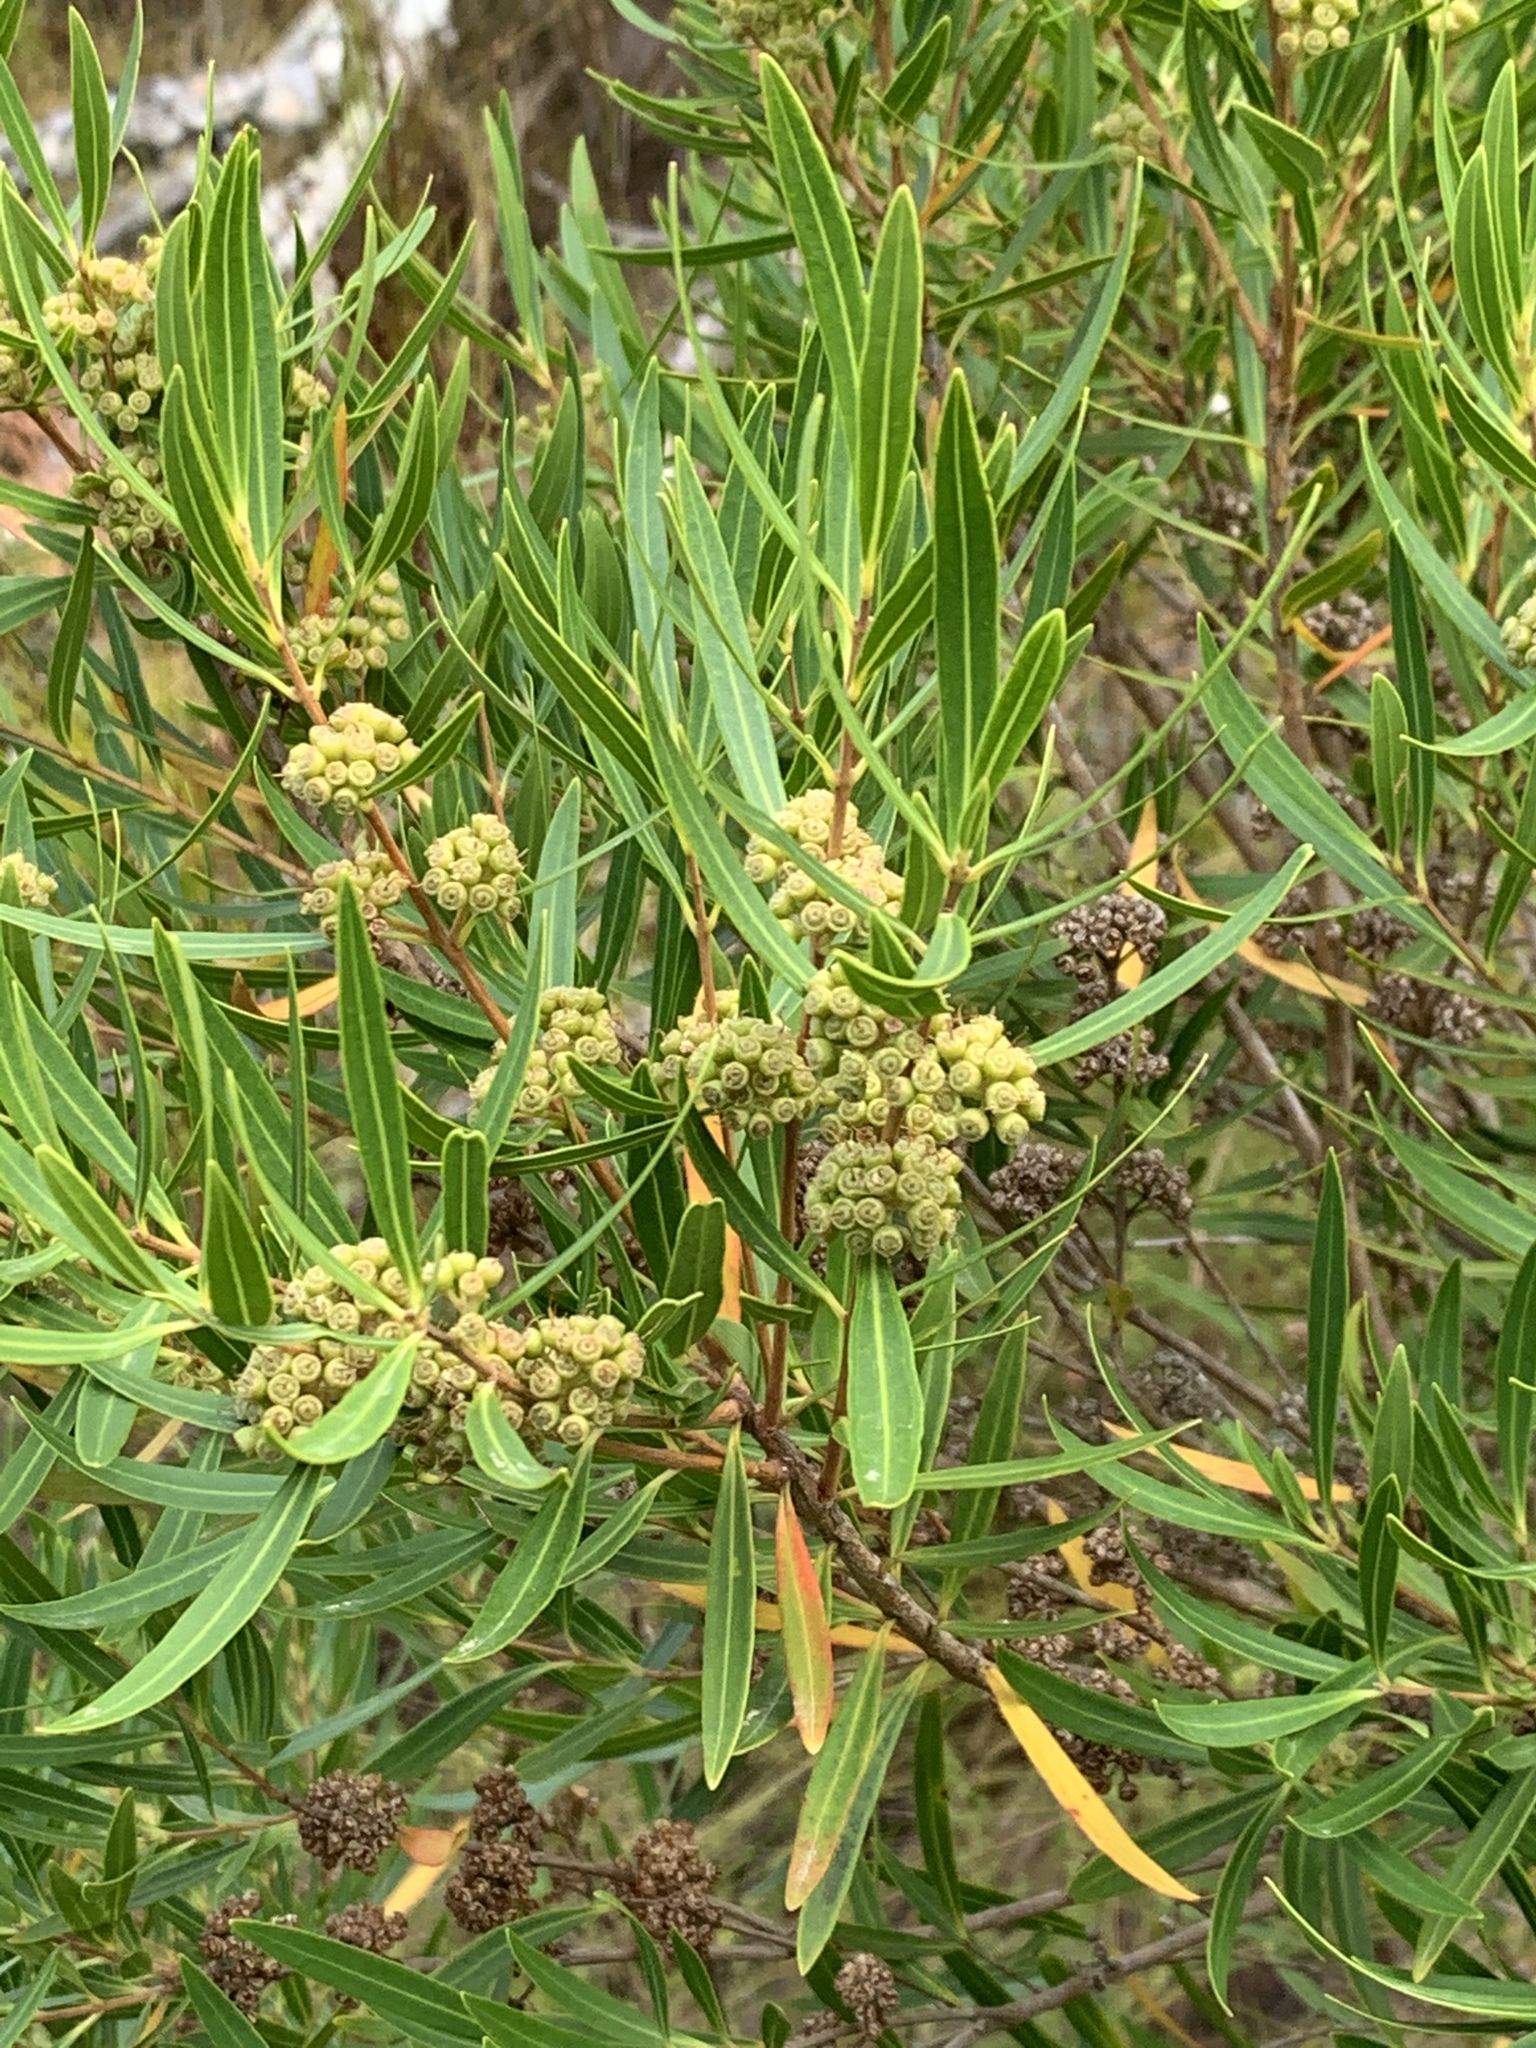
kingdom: Plantae
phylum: Tracheophyta
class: Magnoliopsida
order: Myrtales
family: Myrtaceae
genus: Callistemon
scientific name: Callistemon lanceolatus
